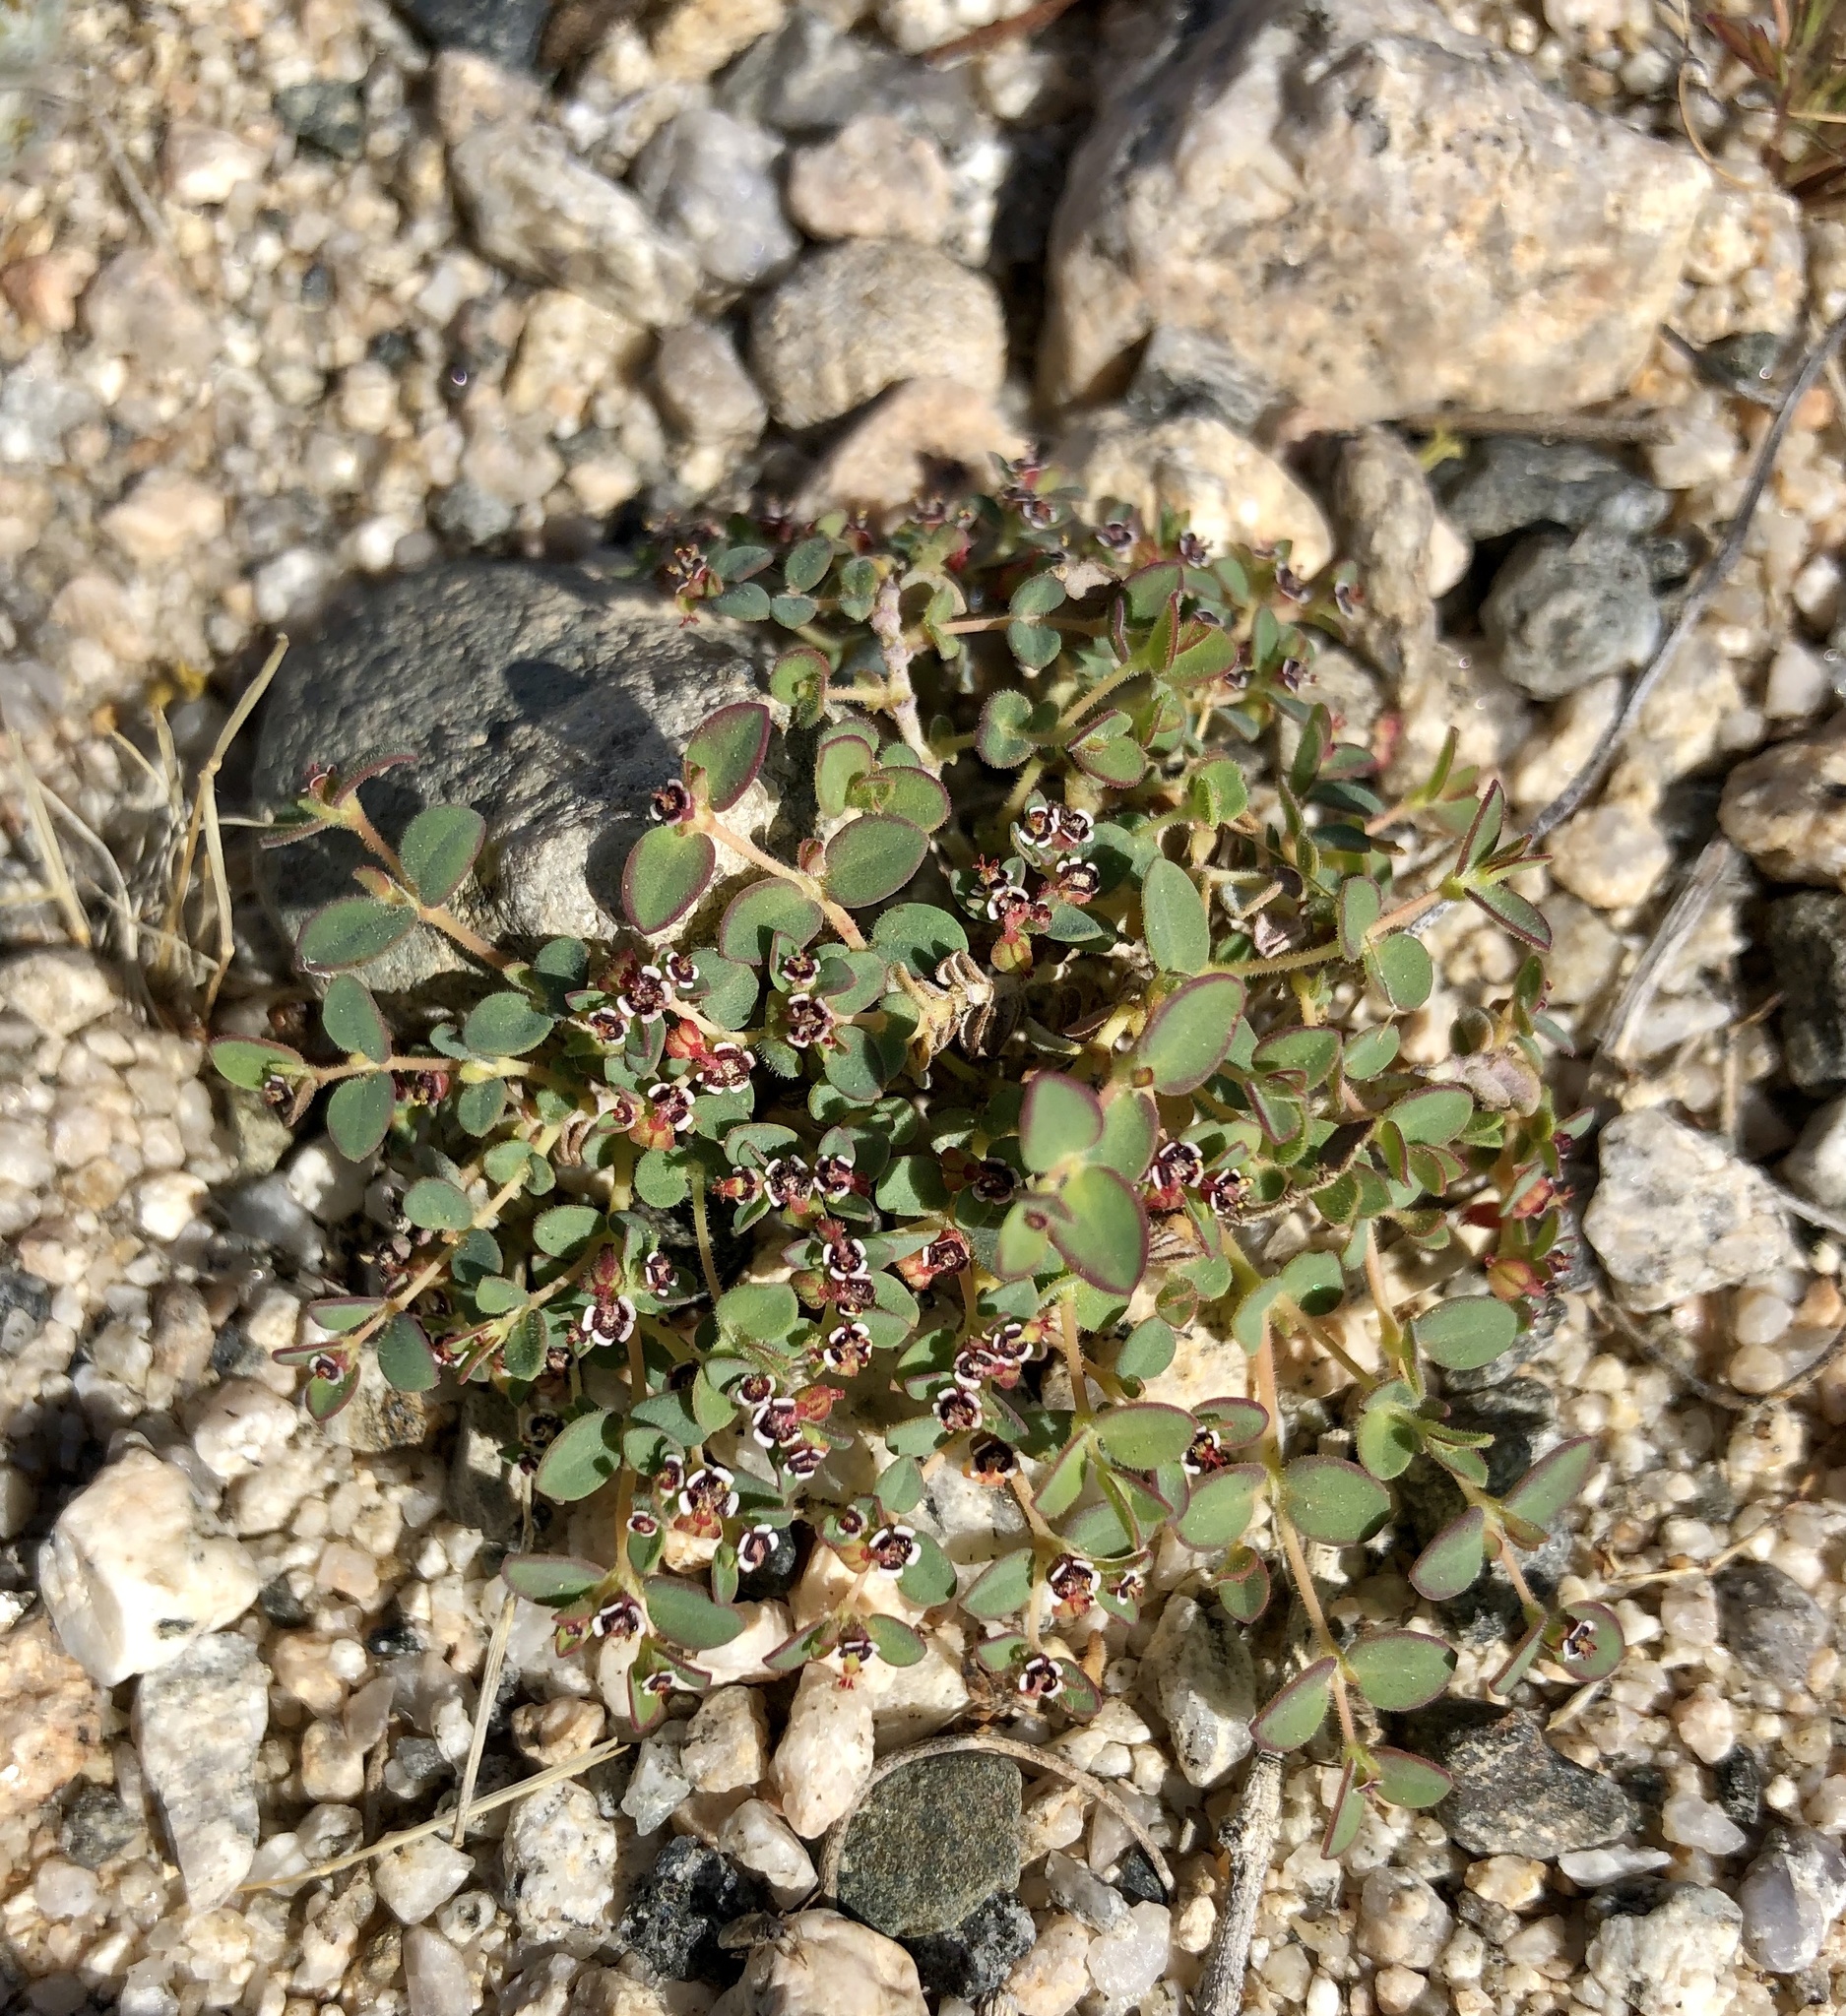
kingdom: Plantae
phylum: Tracheophyta
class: Magnoliopsida
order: Malpighiales
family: Euphorbiaceae
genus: Euphorbia
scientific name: Euphorbia polycarpa
